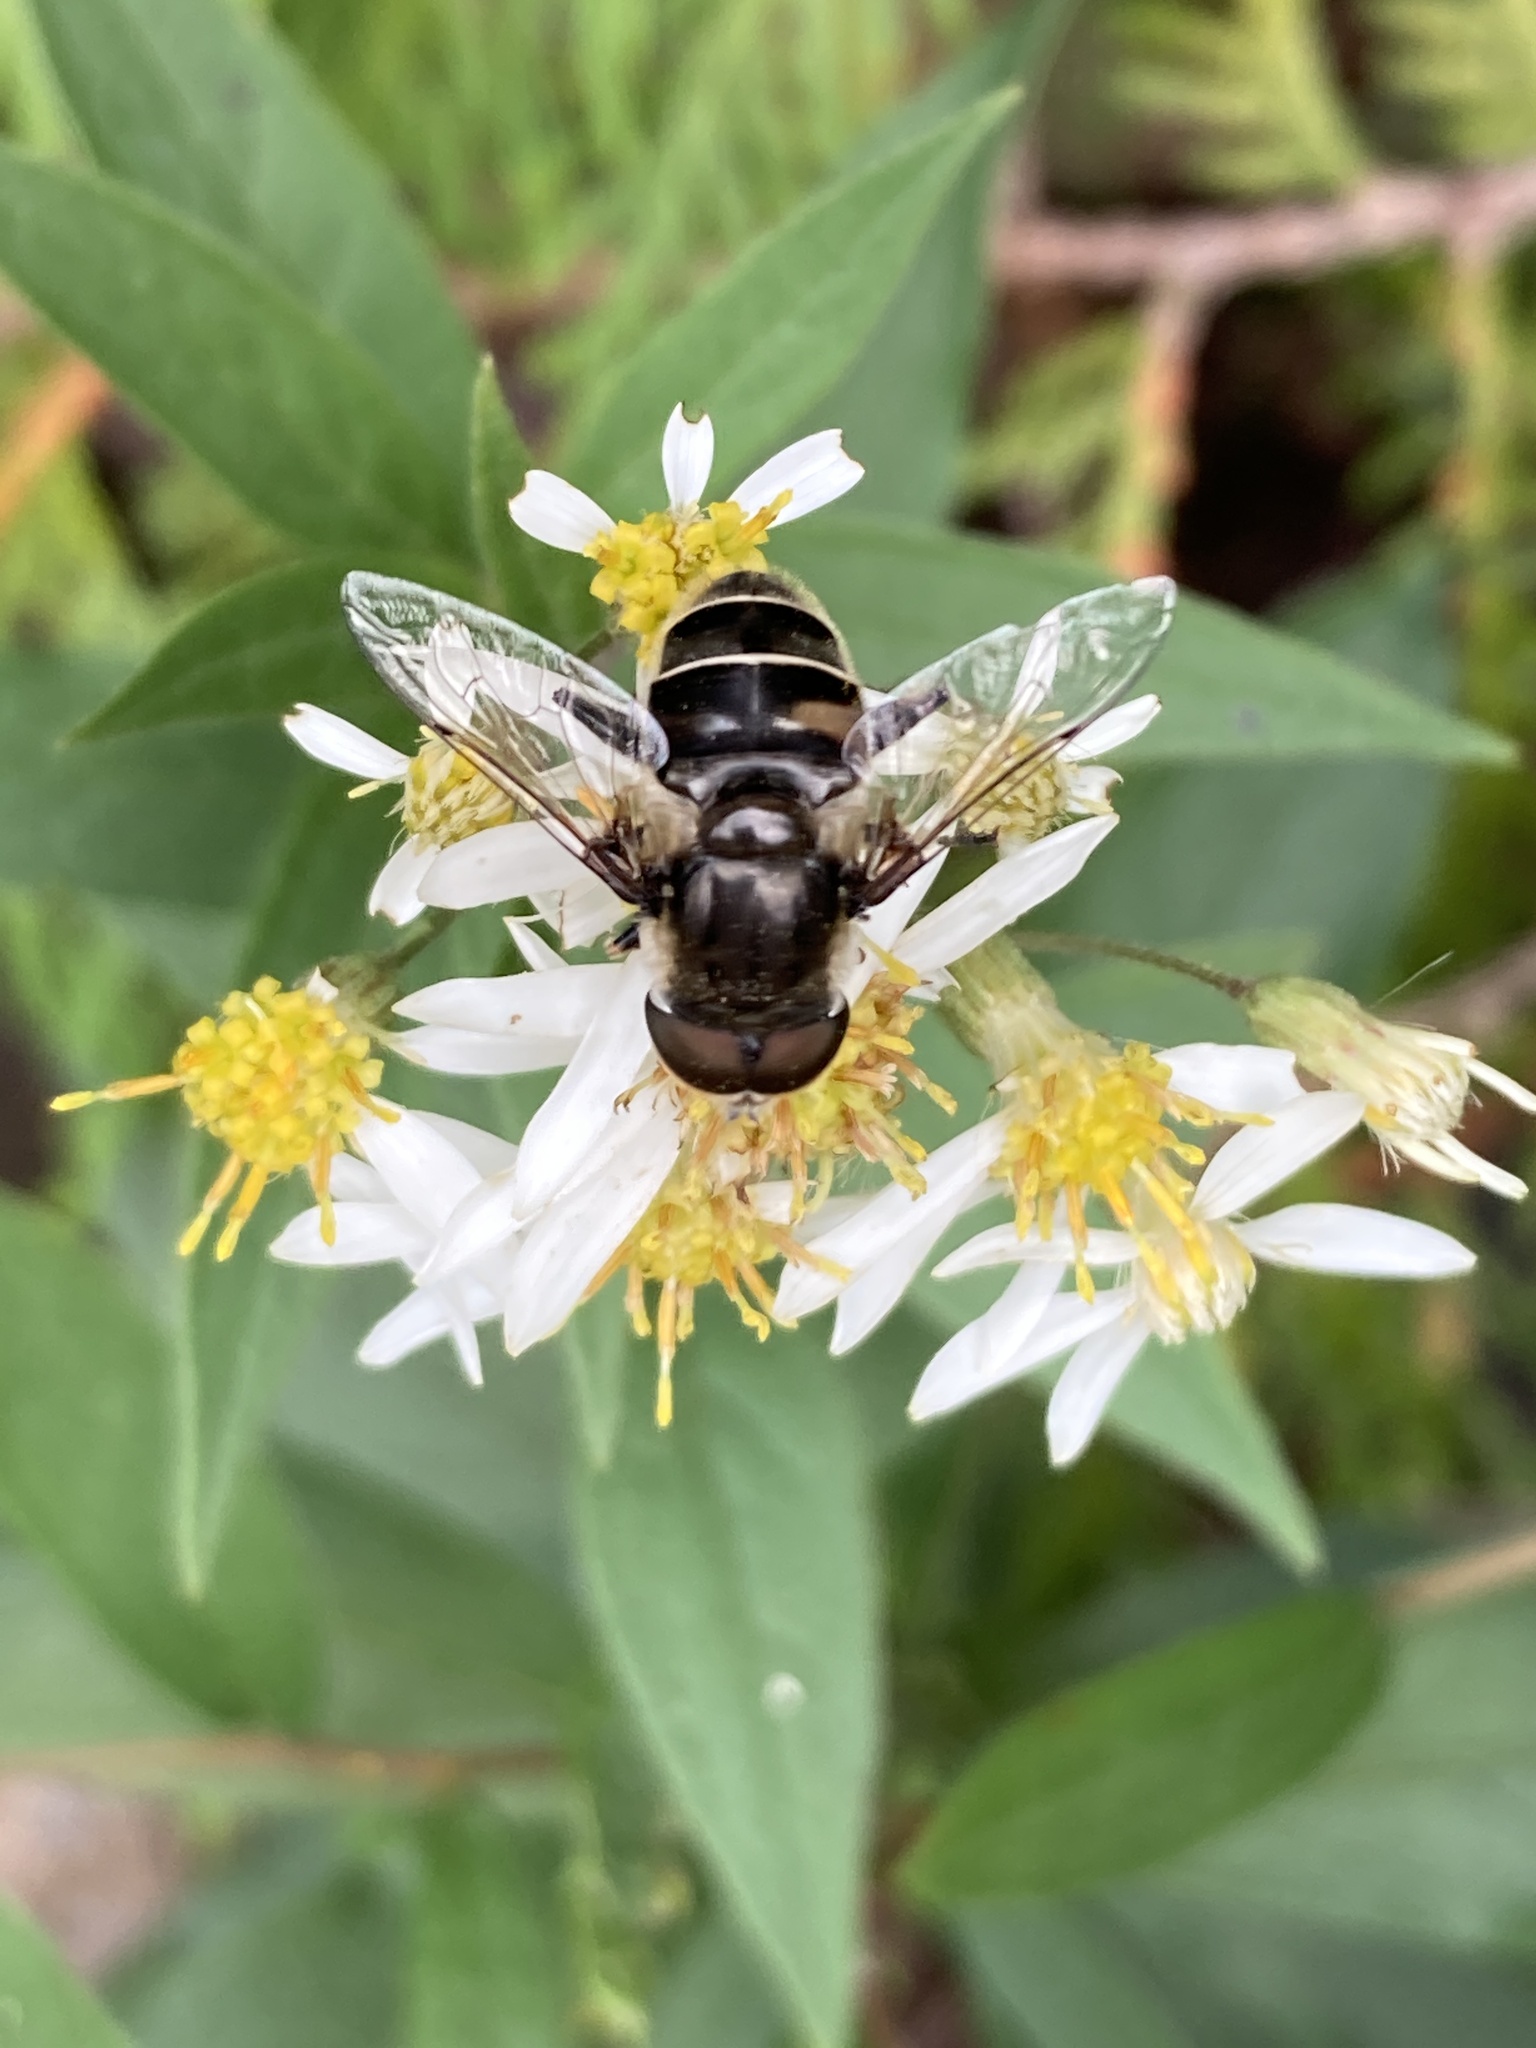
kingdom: Animalia
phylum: Arthropoda
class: Insecta
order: Diptera
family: Syrphidae
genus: Eristalis
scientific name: Eristalis dimidiata
